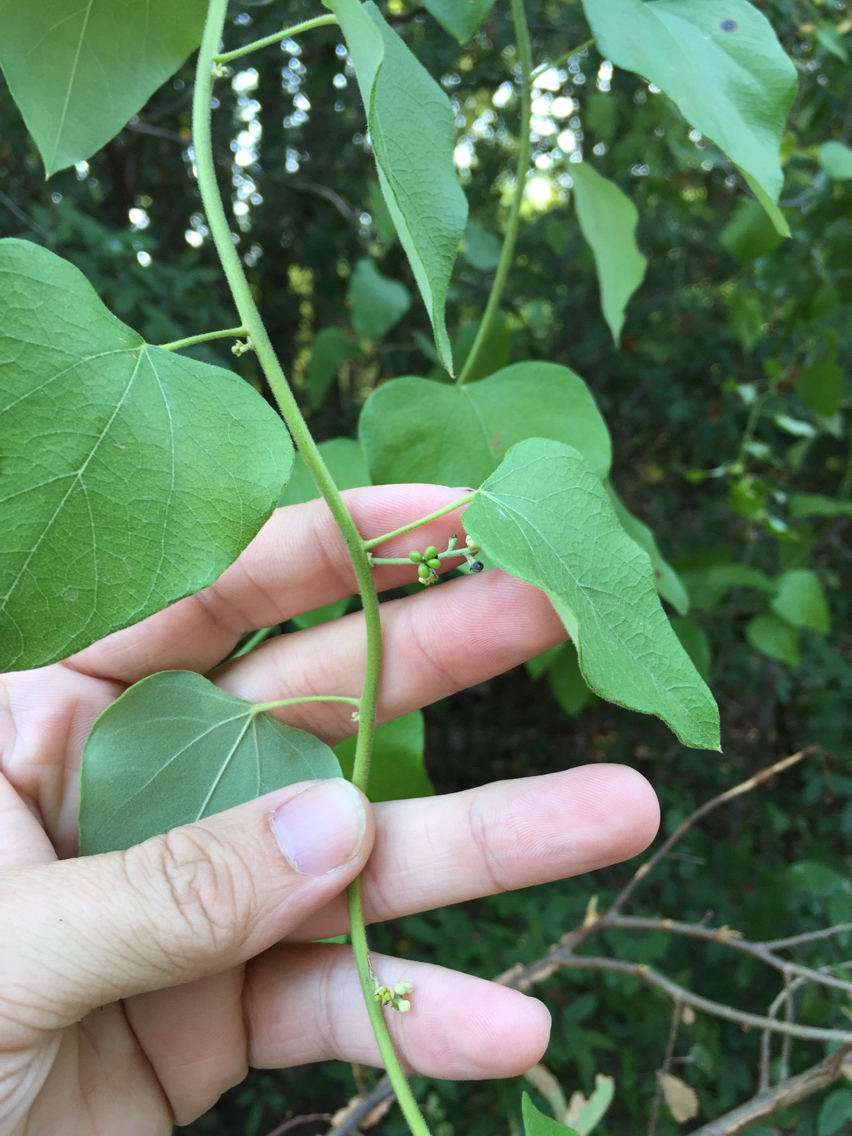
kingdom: Plantae
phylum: Tracheophyta
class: Magnoliopsida
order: Ranunculales
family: Menispermaceae
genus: Cocculus
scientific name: Cocculus carolinus
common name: Carolina moonseed
